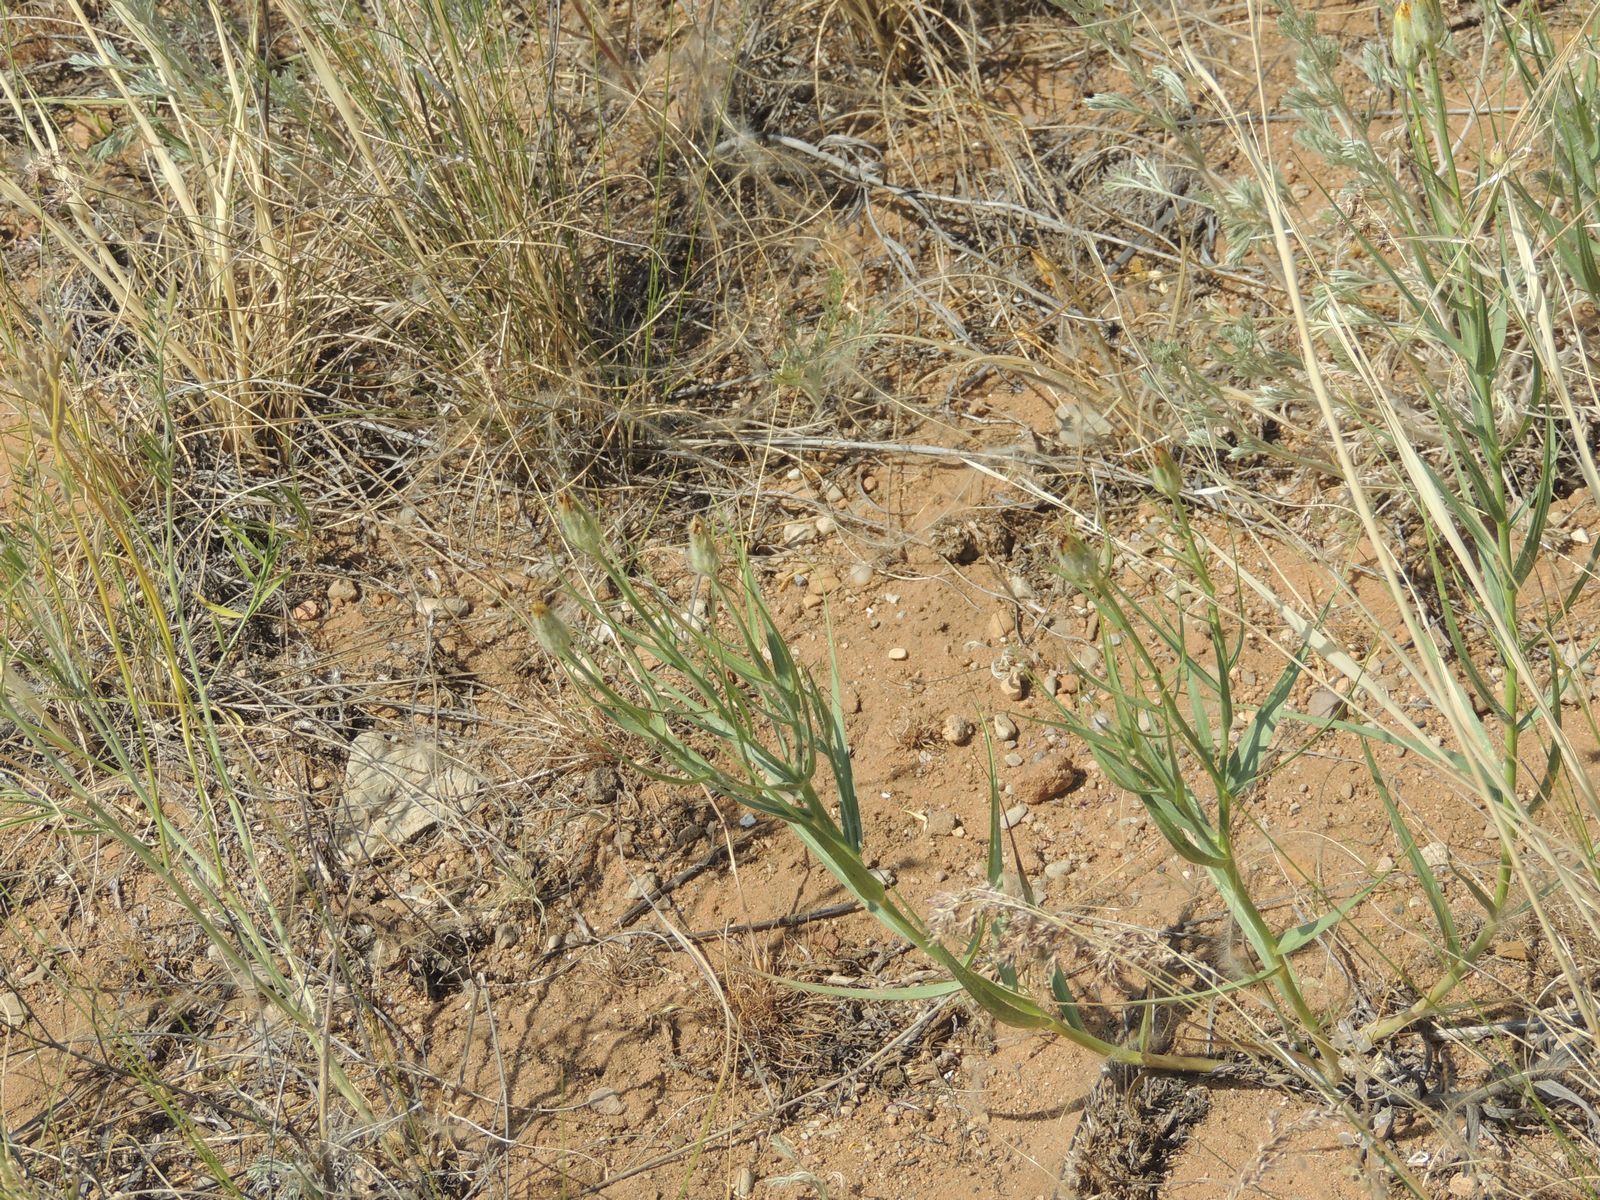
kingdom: Plantae
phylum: Tracheophyta
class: Magnoliopsida
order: Asterales
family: Asteraceae
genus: Gelasia
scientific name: Gelasia ensifolia
